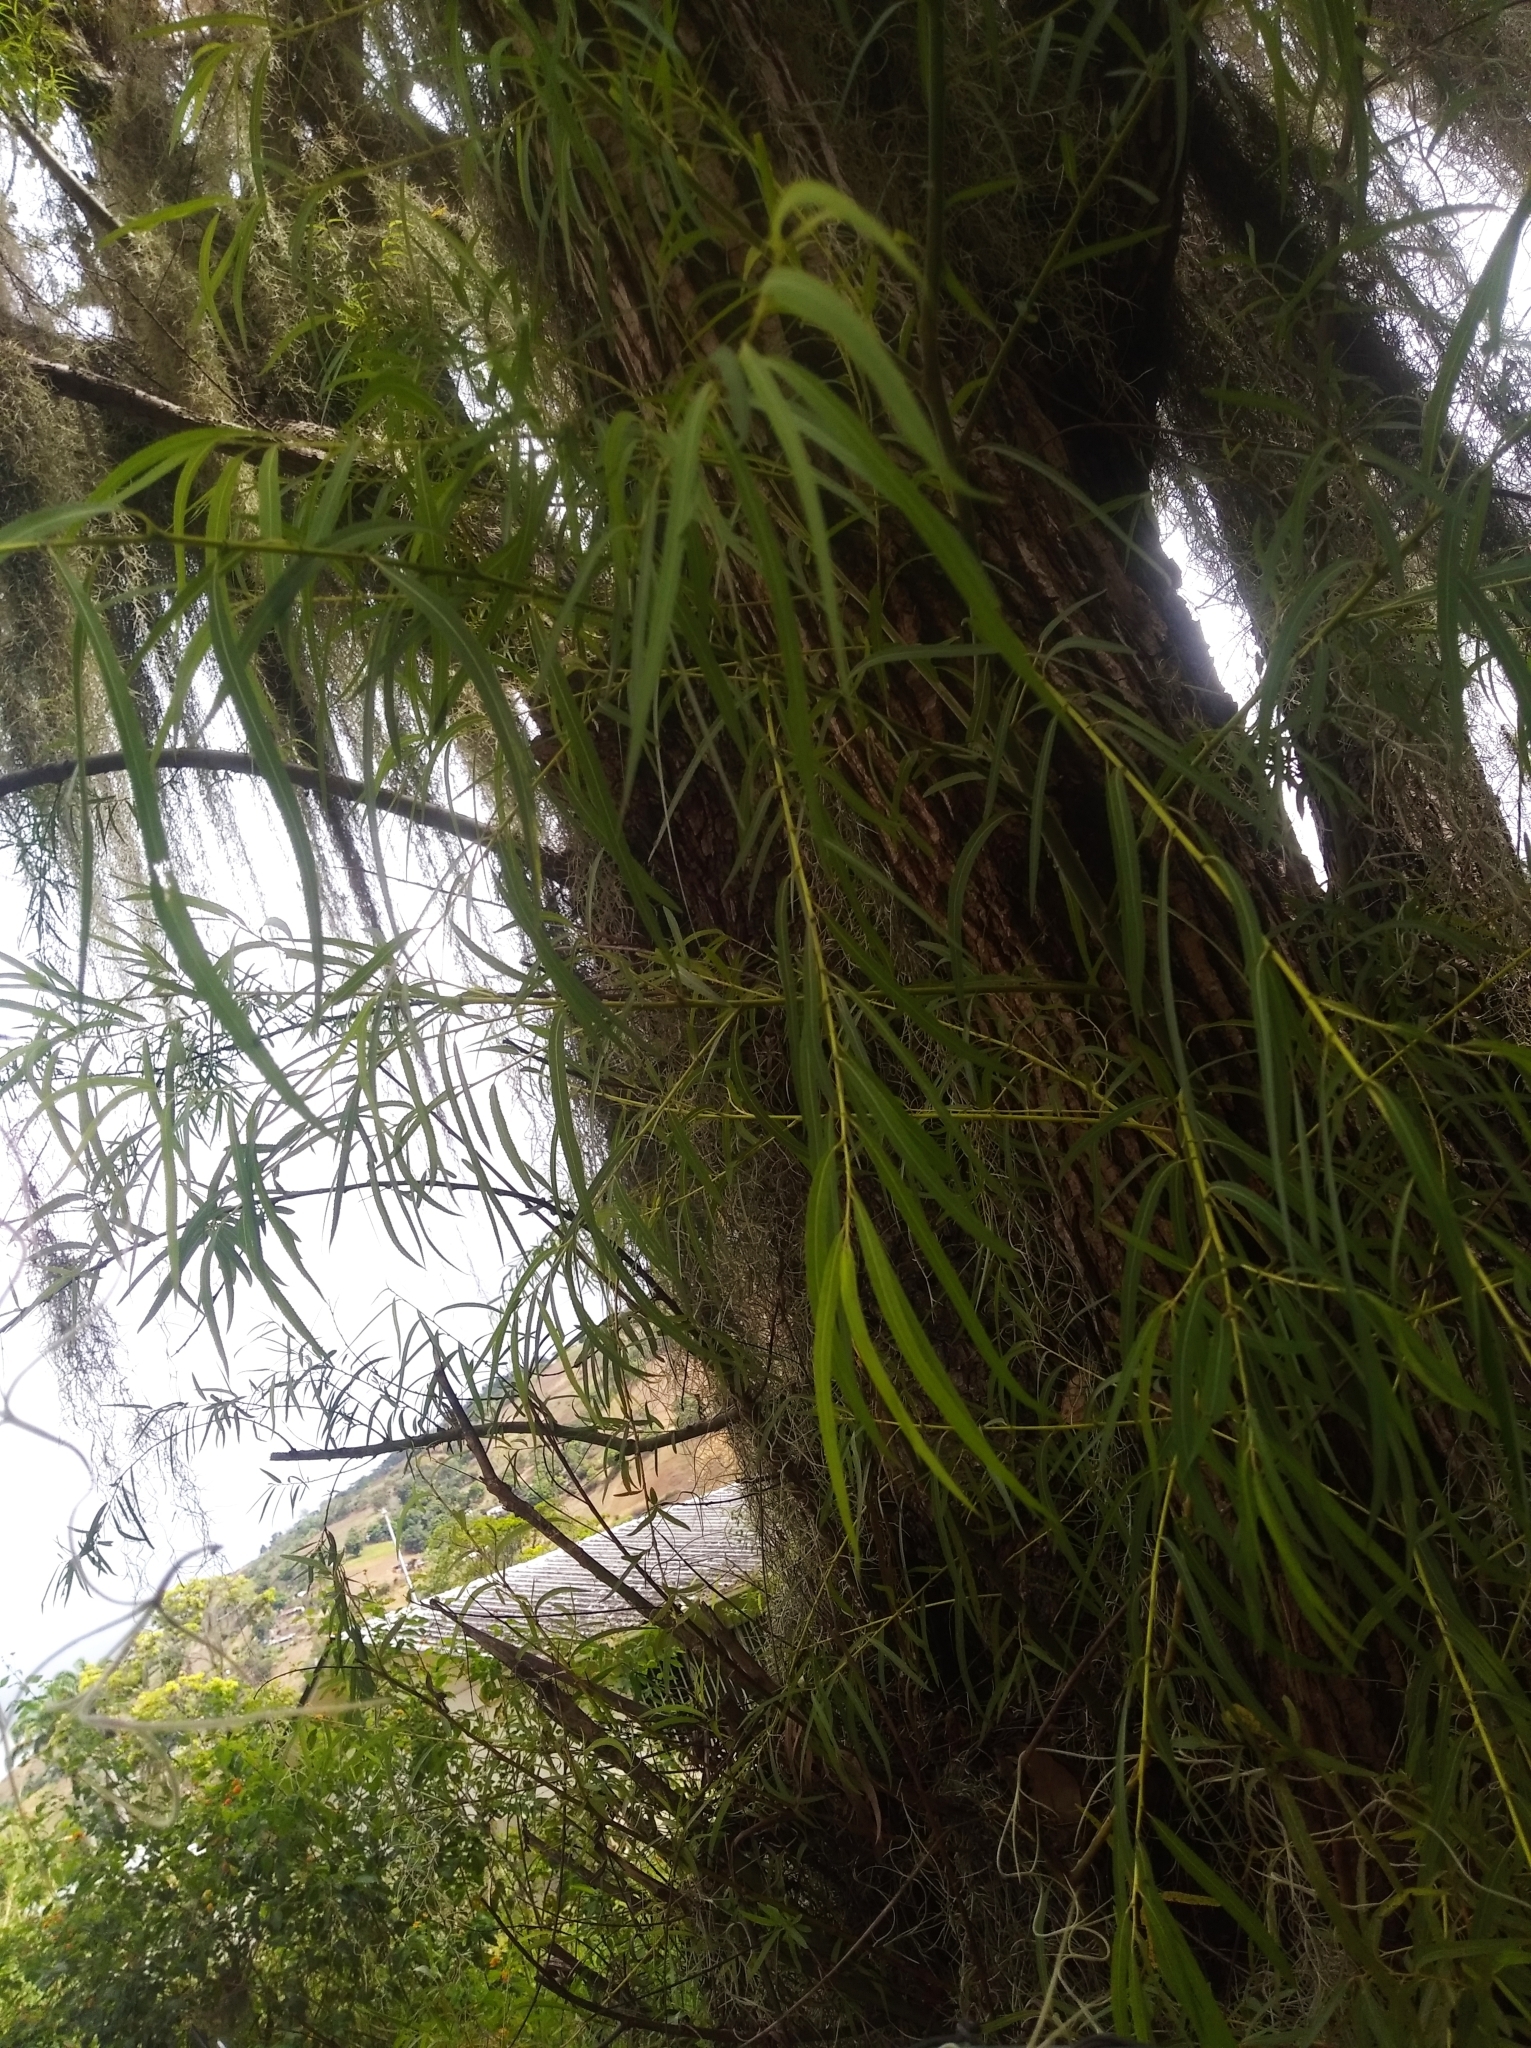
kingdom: Plantae
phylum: Tracheophyta
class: Magnoliopsida
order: Malpighiales
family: Salicaceae
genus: Salix
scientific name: Salix humboldtiana
